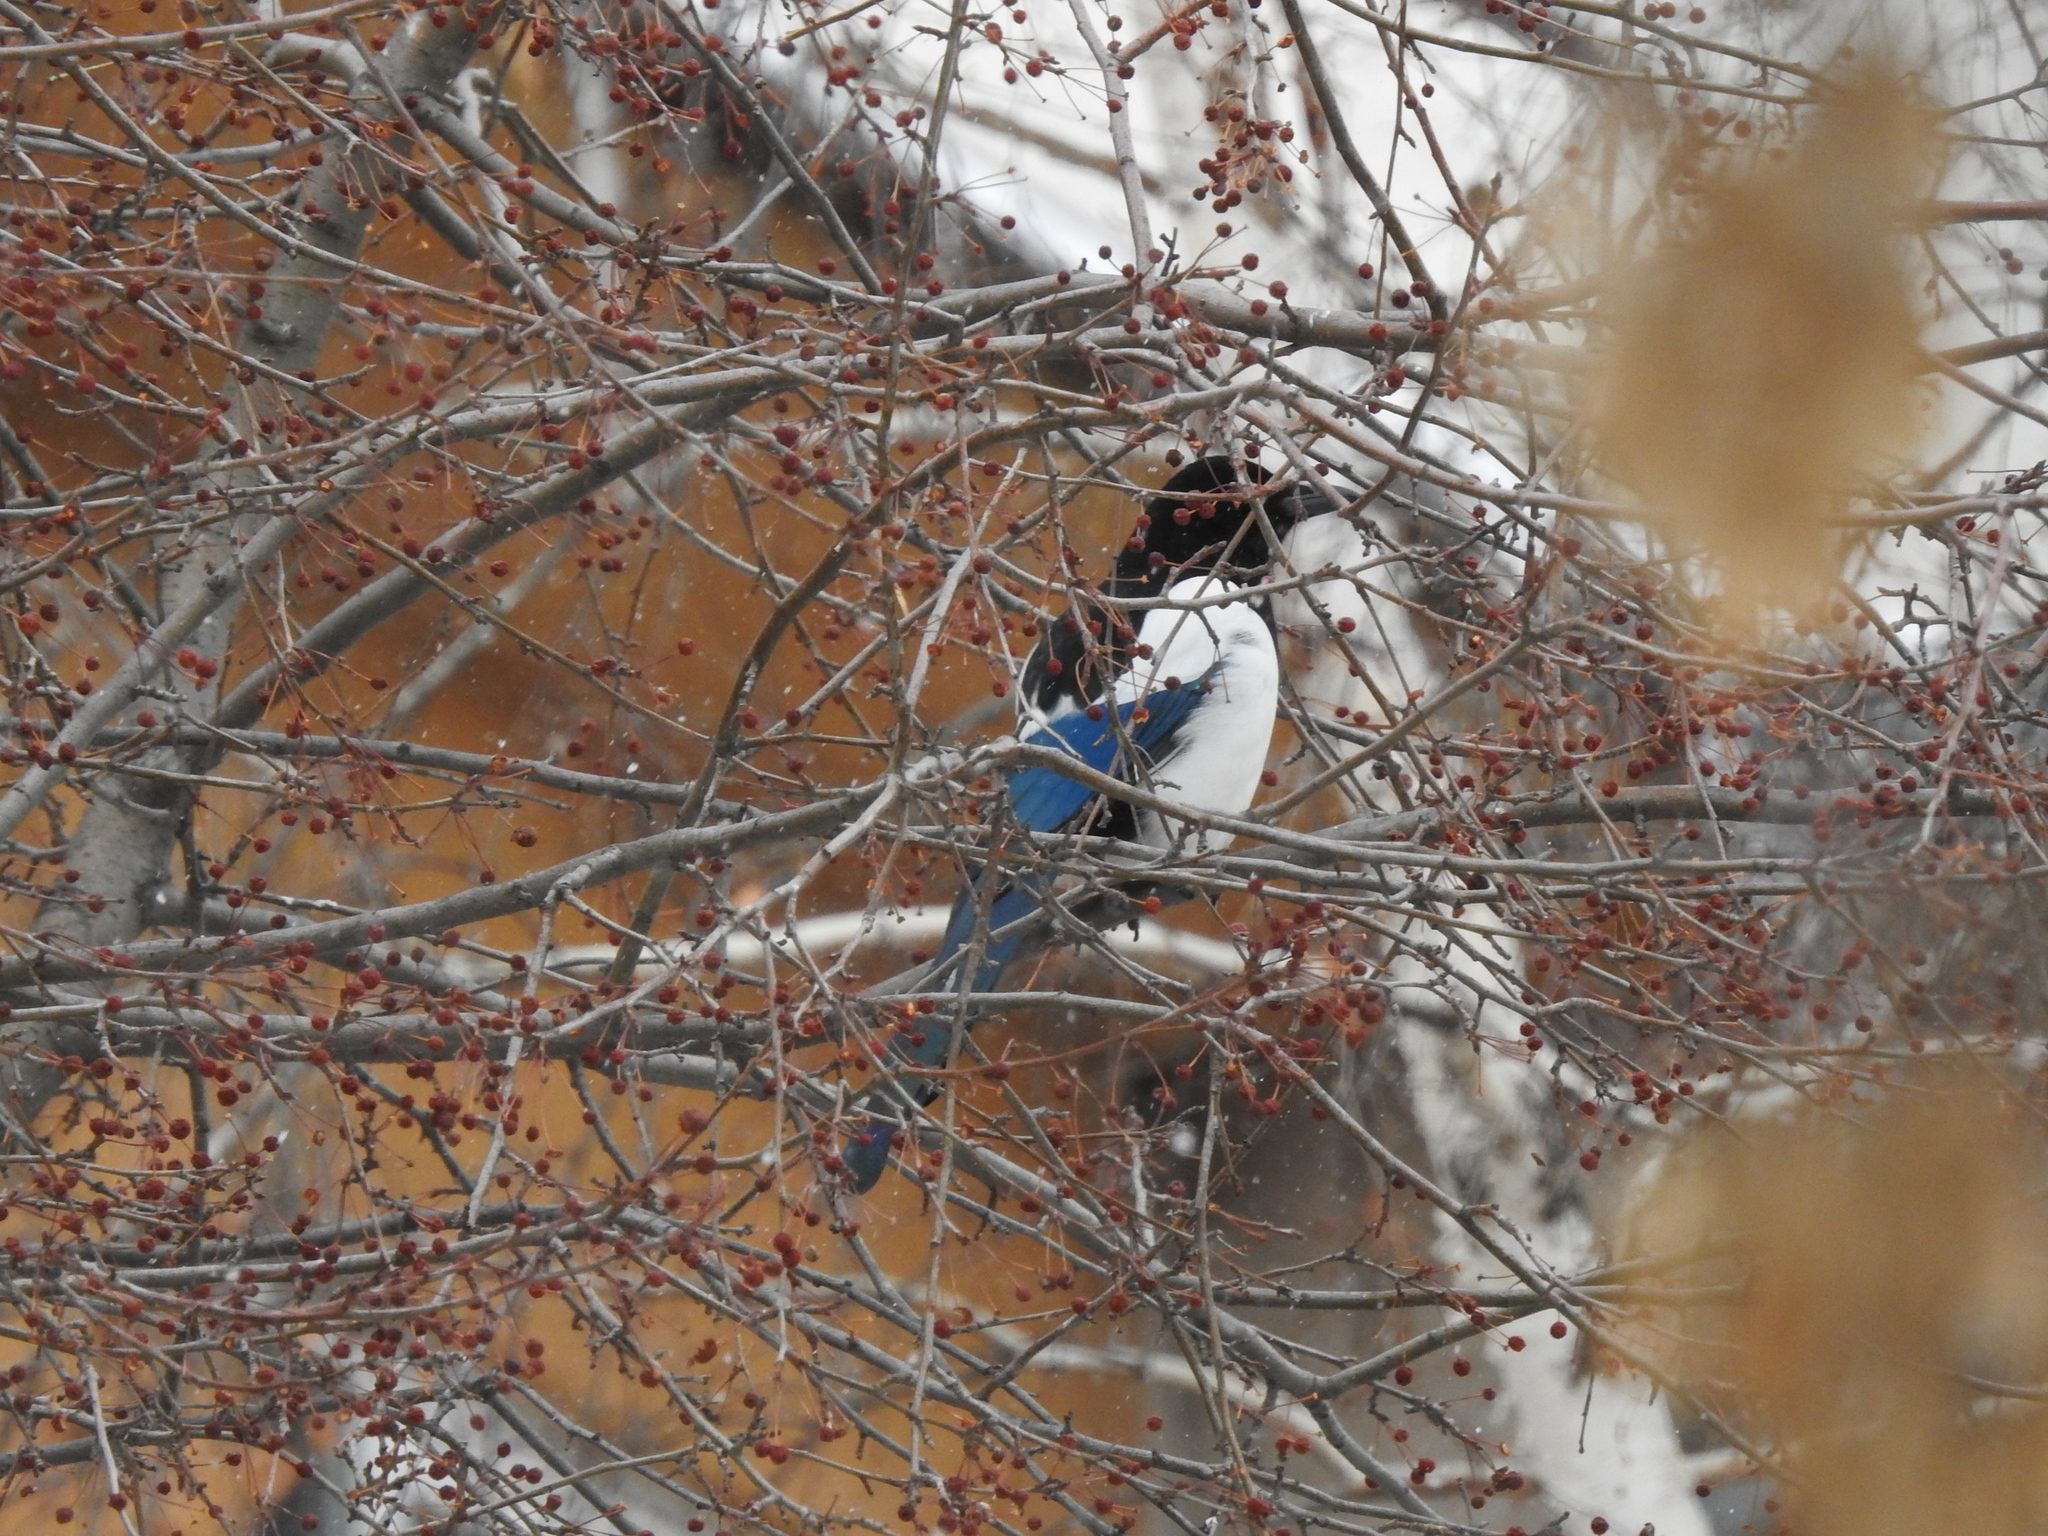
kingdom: Animalia
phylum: Chordata
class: Aves
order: Passeriformes
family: Corvidae
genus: Pica
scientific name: Pica pica
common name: Eurasian magpie
